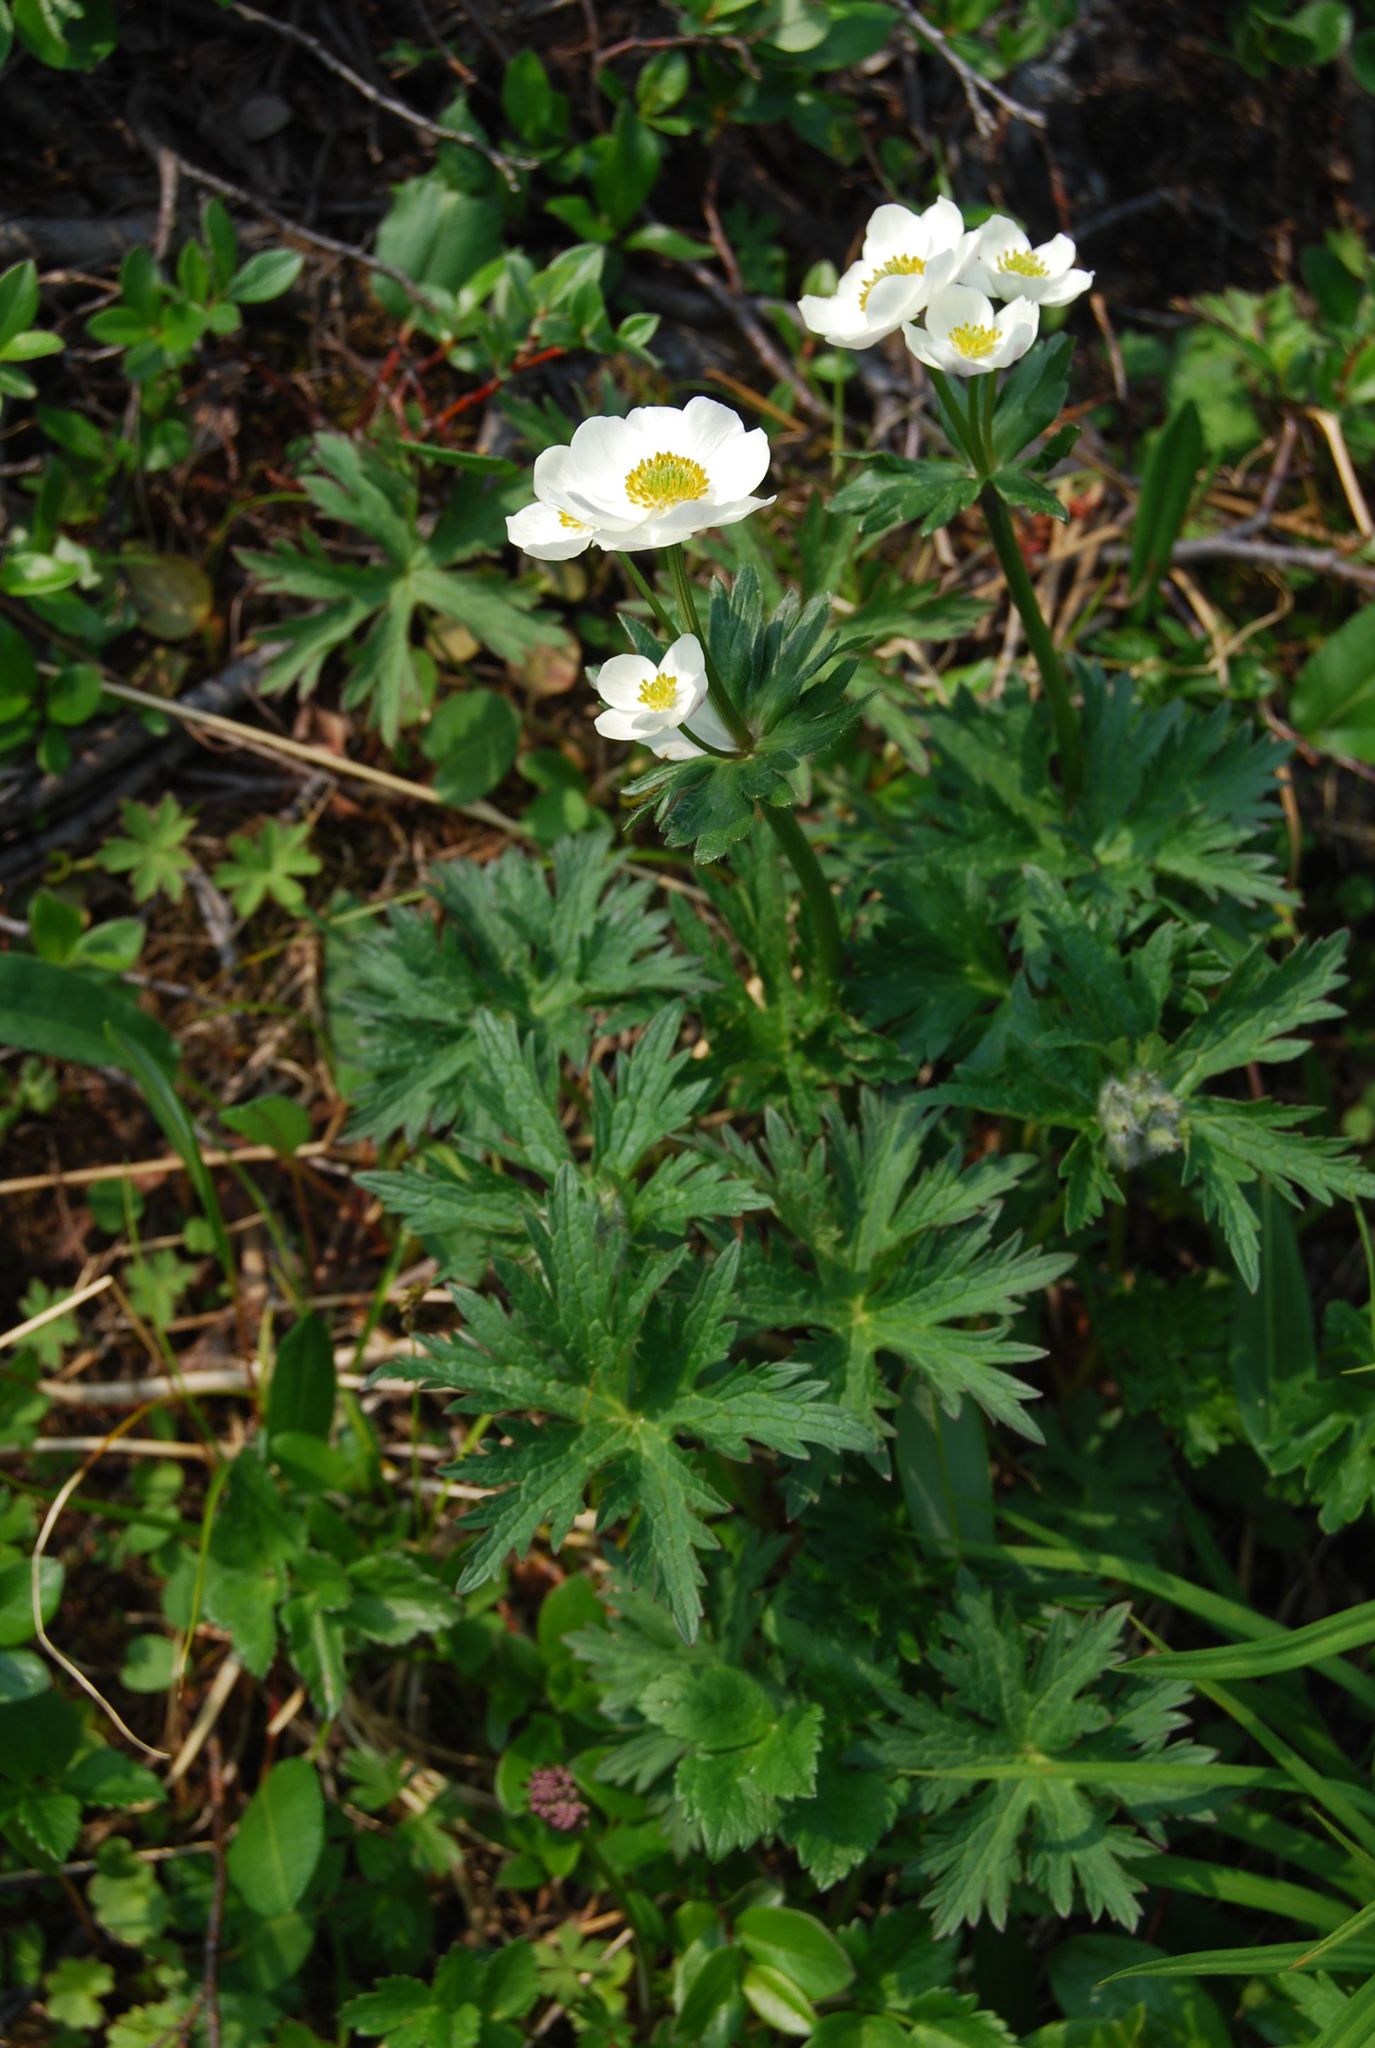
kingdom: Plantae
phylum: Tracheophyta
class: Magnoliopsida
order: Ranunculales
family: Ranunculaceae
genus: Anemonastrum
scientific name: Anemonastrum narcissiflorum
